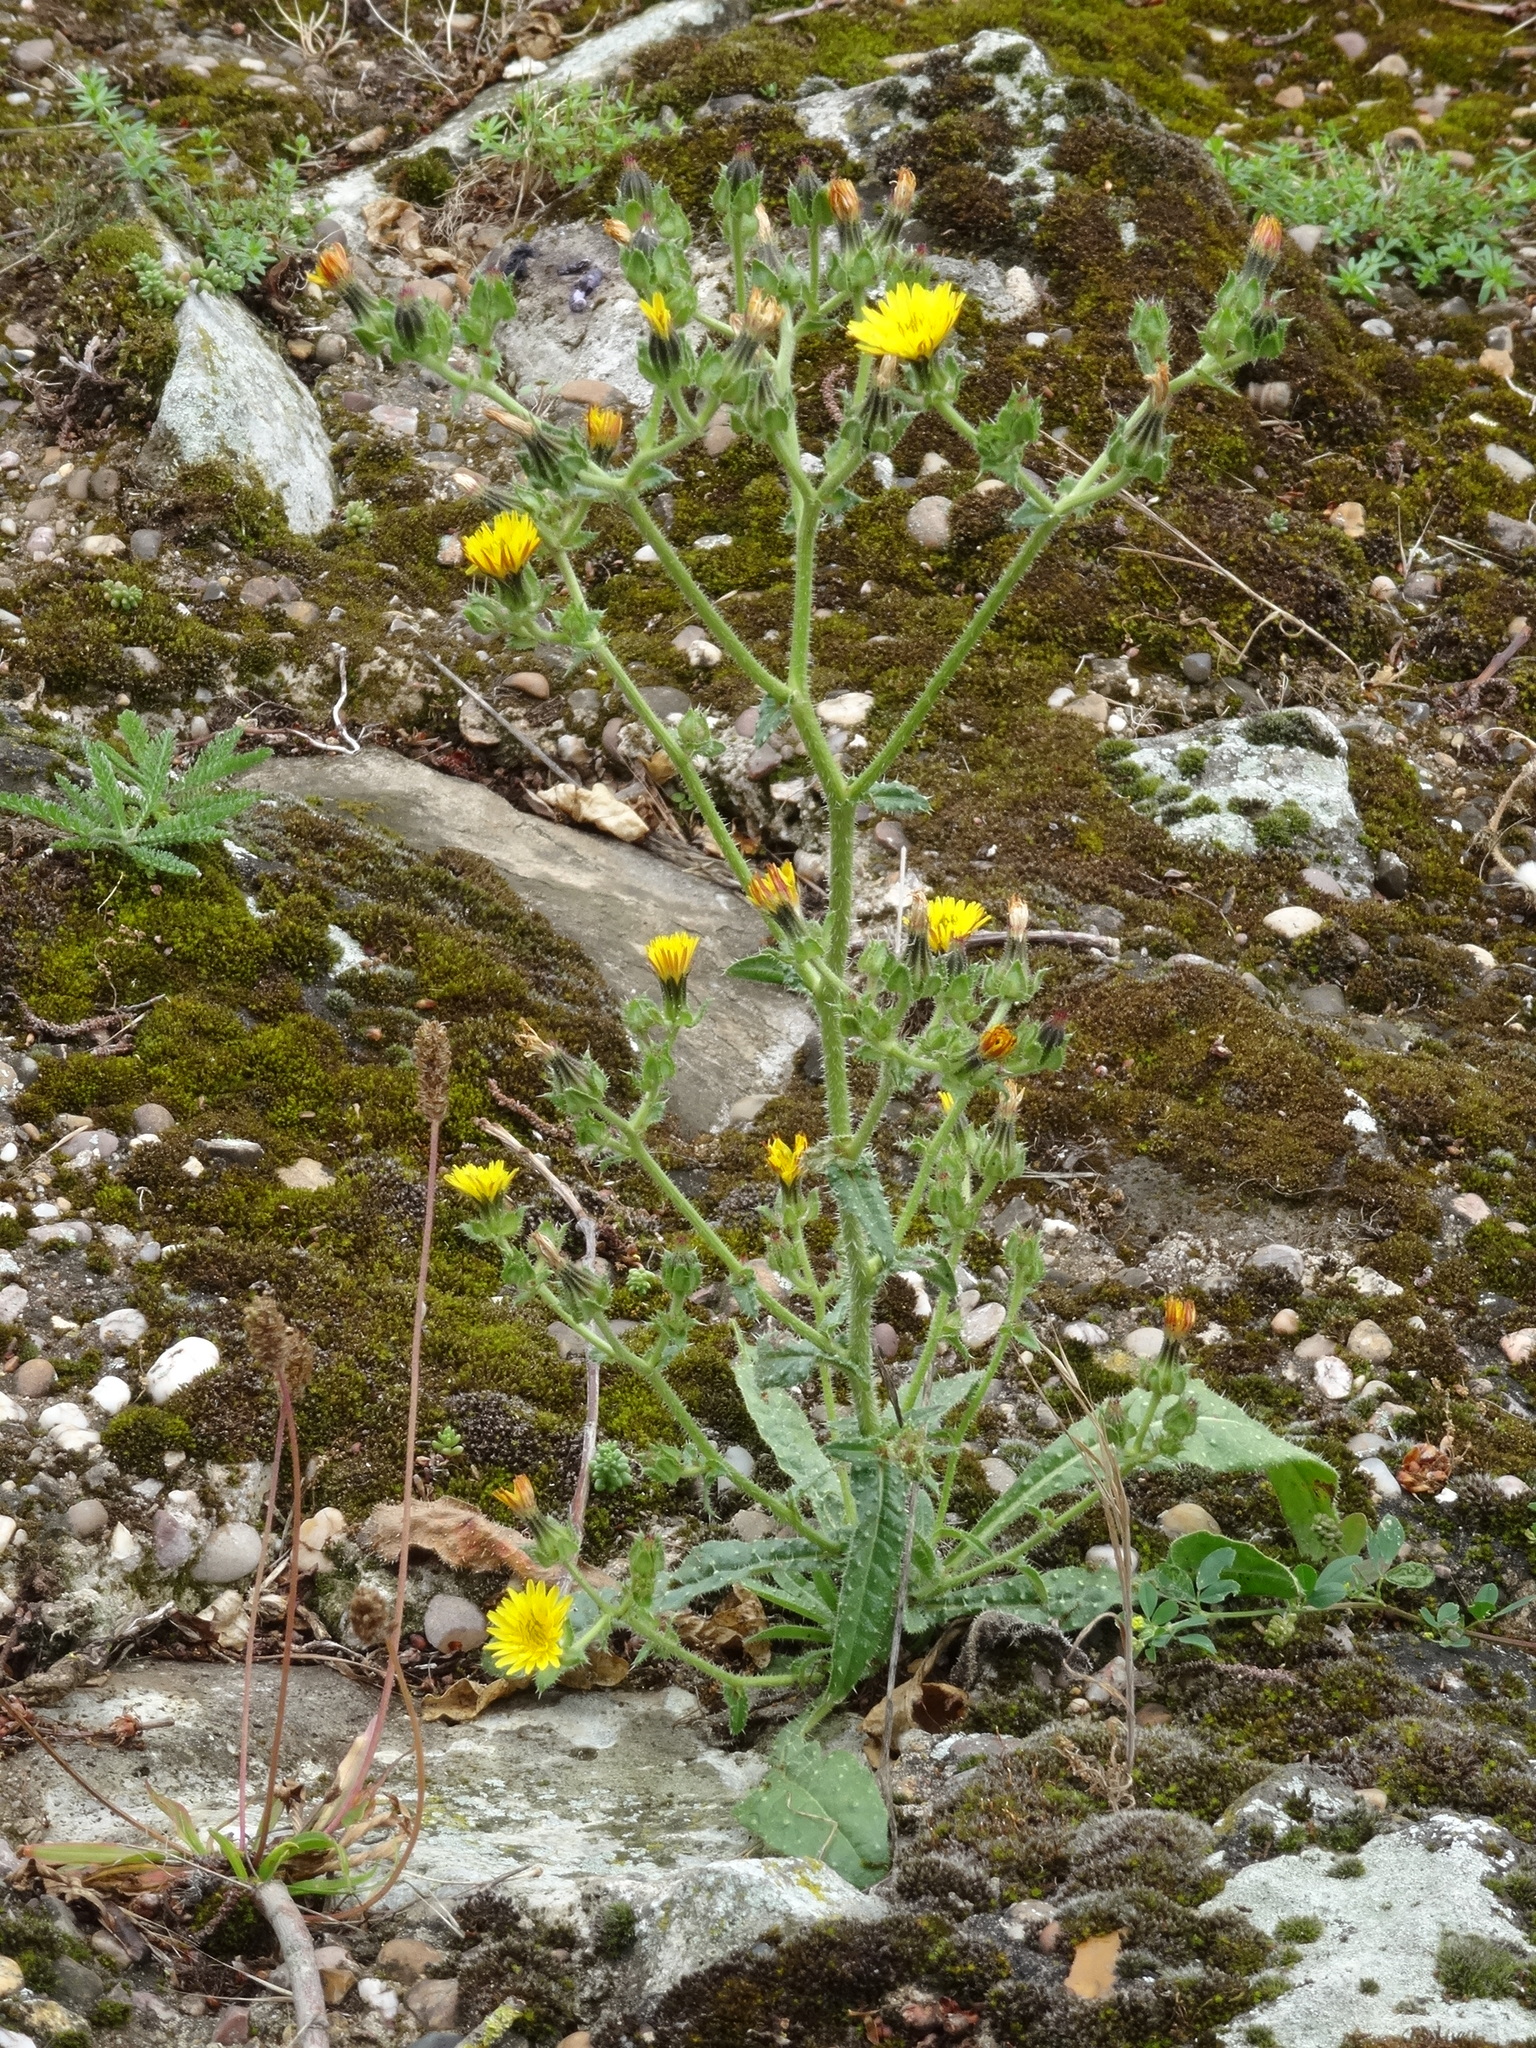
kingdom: Plantae
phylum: Tracheophyta
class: Magnoliopsida
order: Asterales
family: Asteraceae
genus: Helminthotheca
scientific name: Helminthotheca echioides
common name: Ox-tongue
